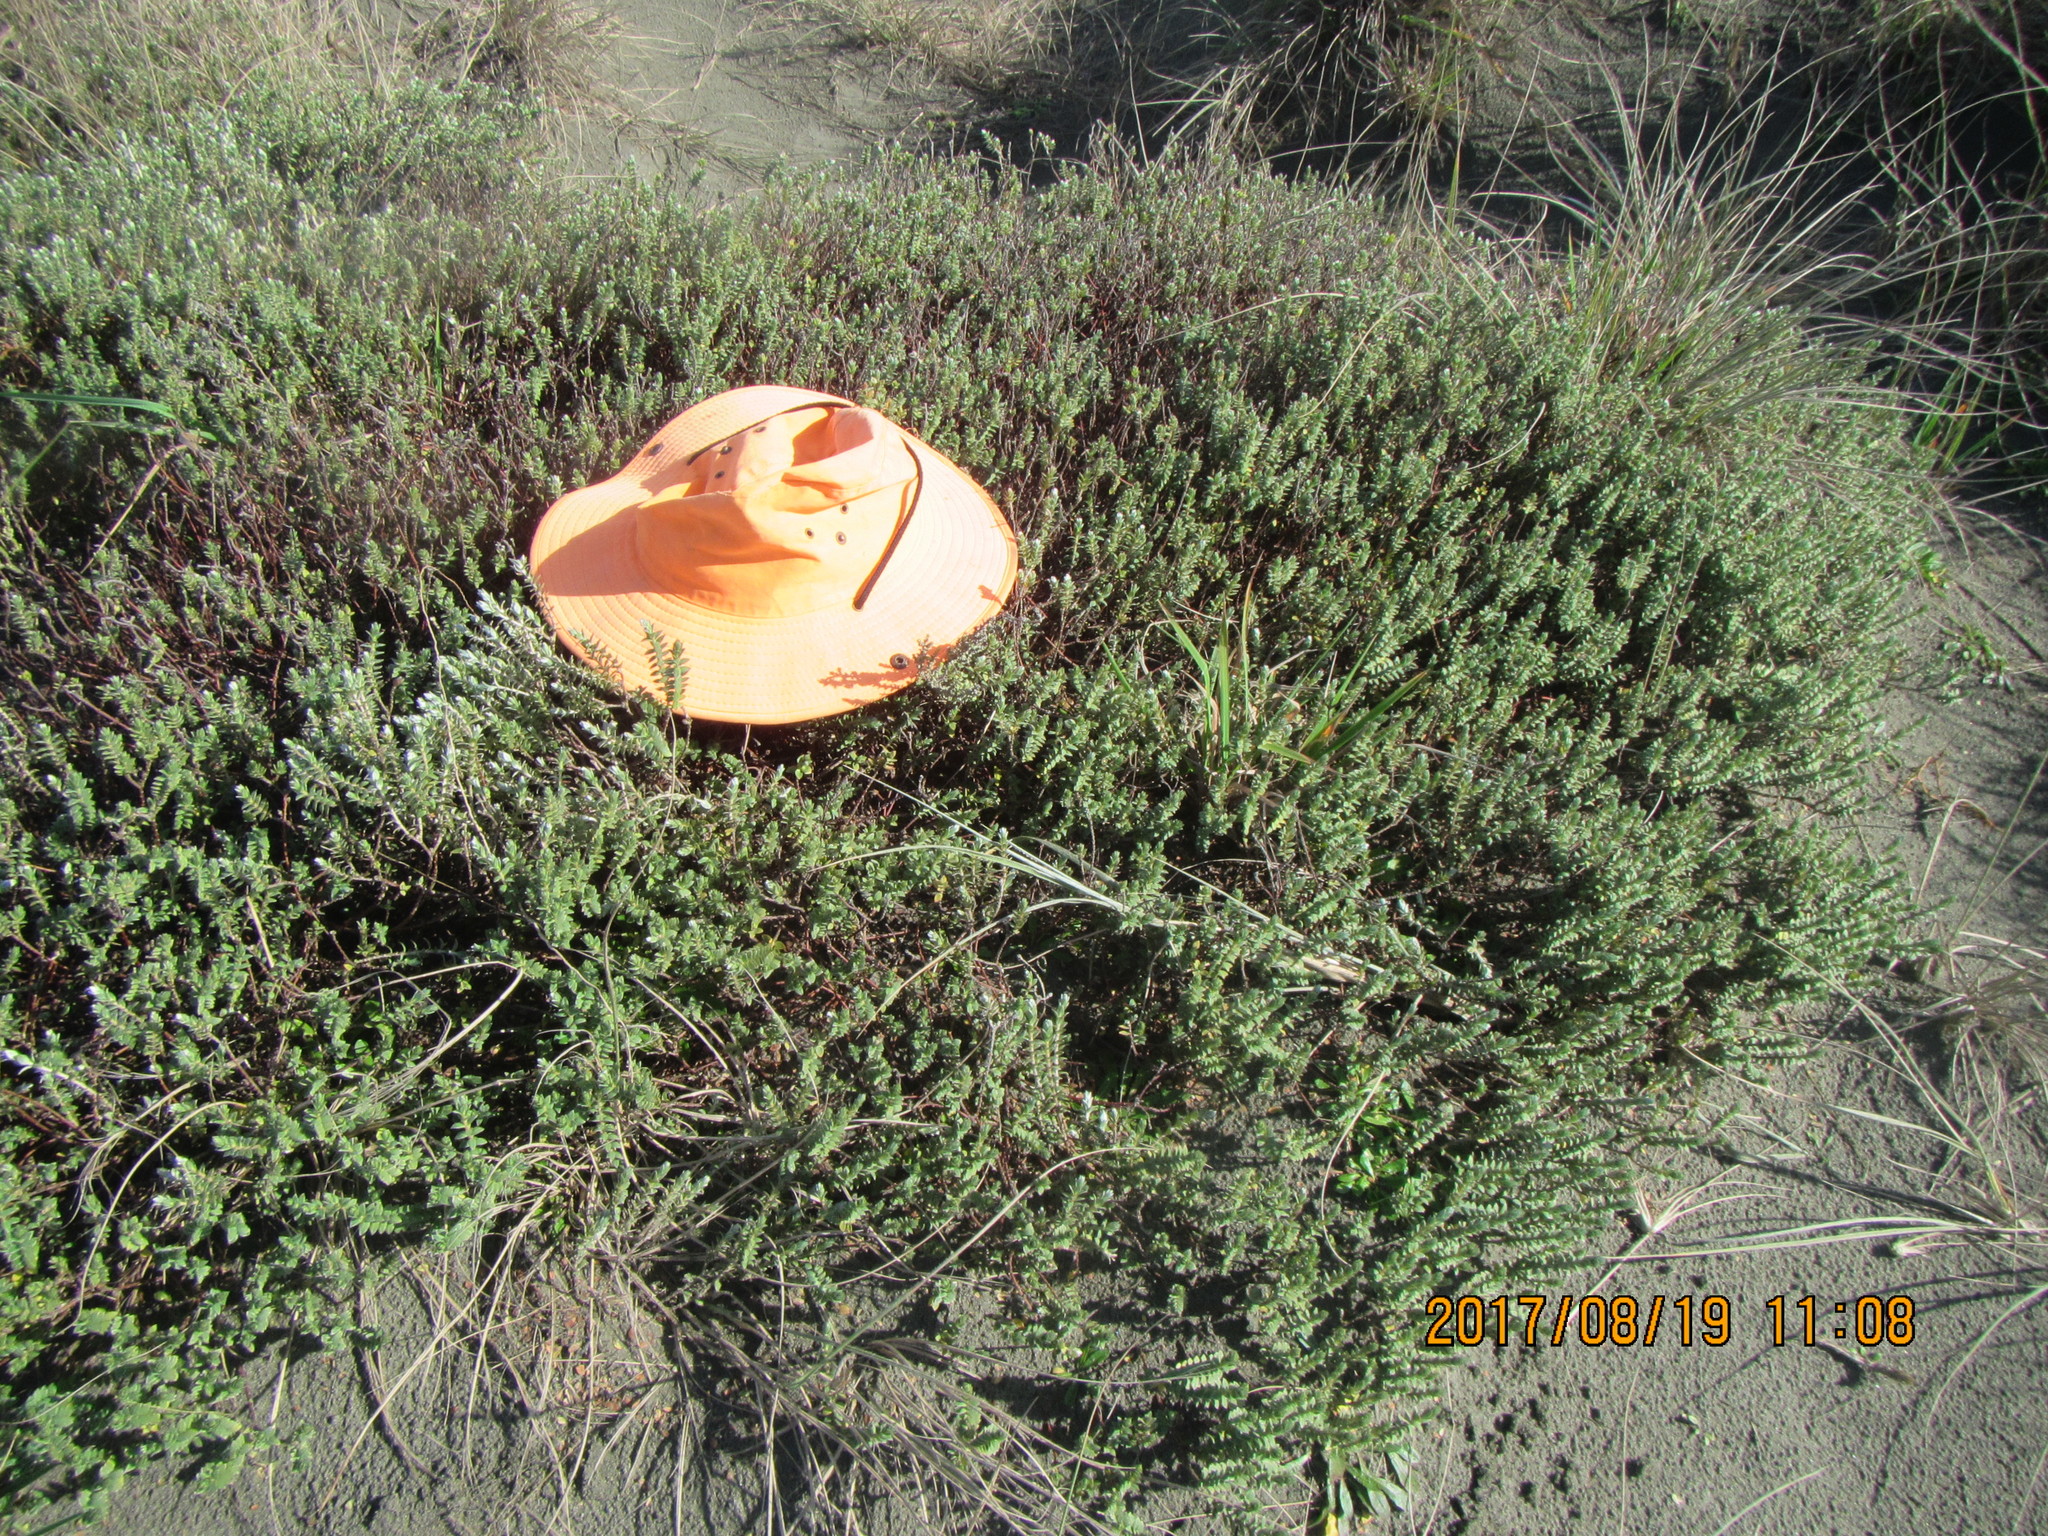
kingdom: Plantae
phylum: Tracheophyta
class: Magnoliopsida
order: Malvales
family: Thymelaeaceae
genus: Pimelea
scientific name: Pimelea villosa
